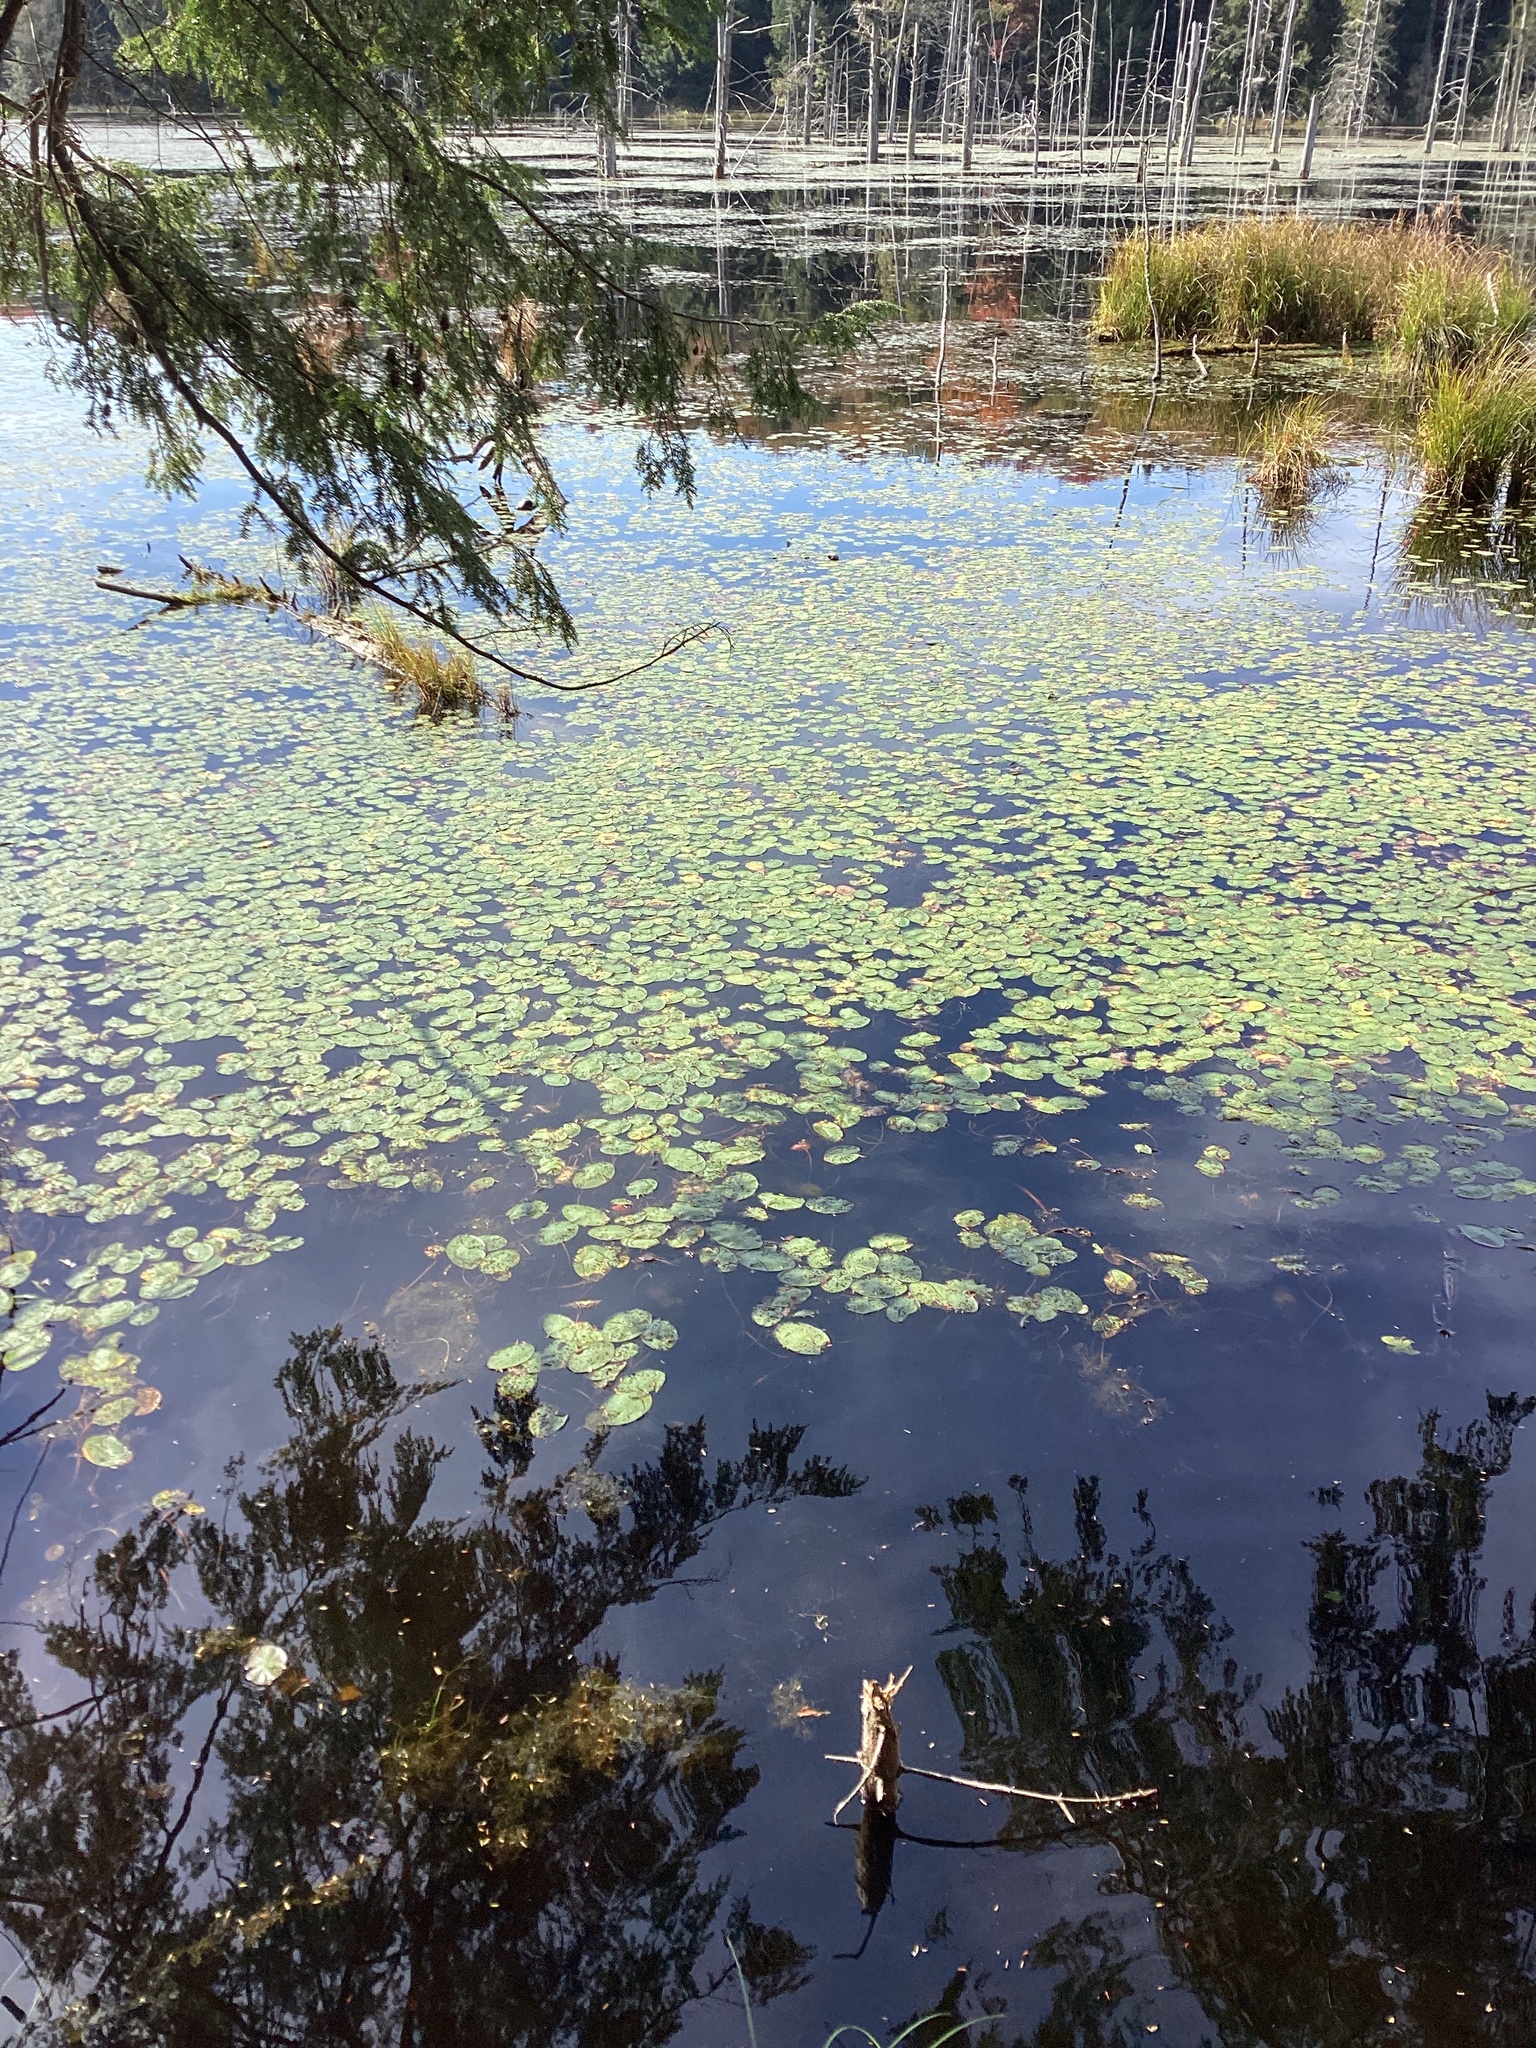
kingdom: Plantae
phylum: Tracheophyta
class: Magnoliopsida
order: Nymphaeales
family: Cabombaceae
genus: Brasenia
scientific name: Brasenia schreberi
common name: Water-shield
